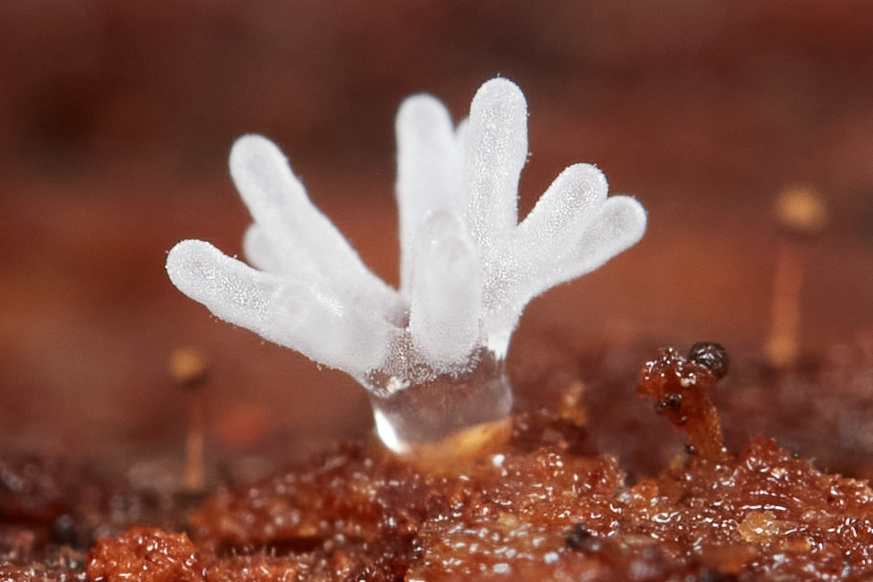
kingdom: Protozoa
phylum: Mycetozoa
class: Protosteliomycetes
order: Ceratiomyxales
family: Ceratiomyxaceae
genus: Ceratiomyxa
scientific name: Ceratiomyxa fruticulosa
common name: Honeycomb coral slime mold
